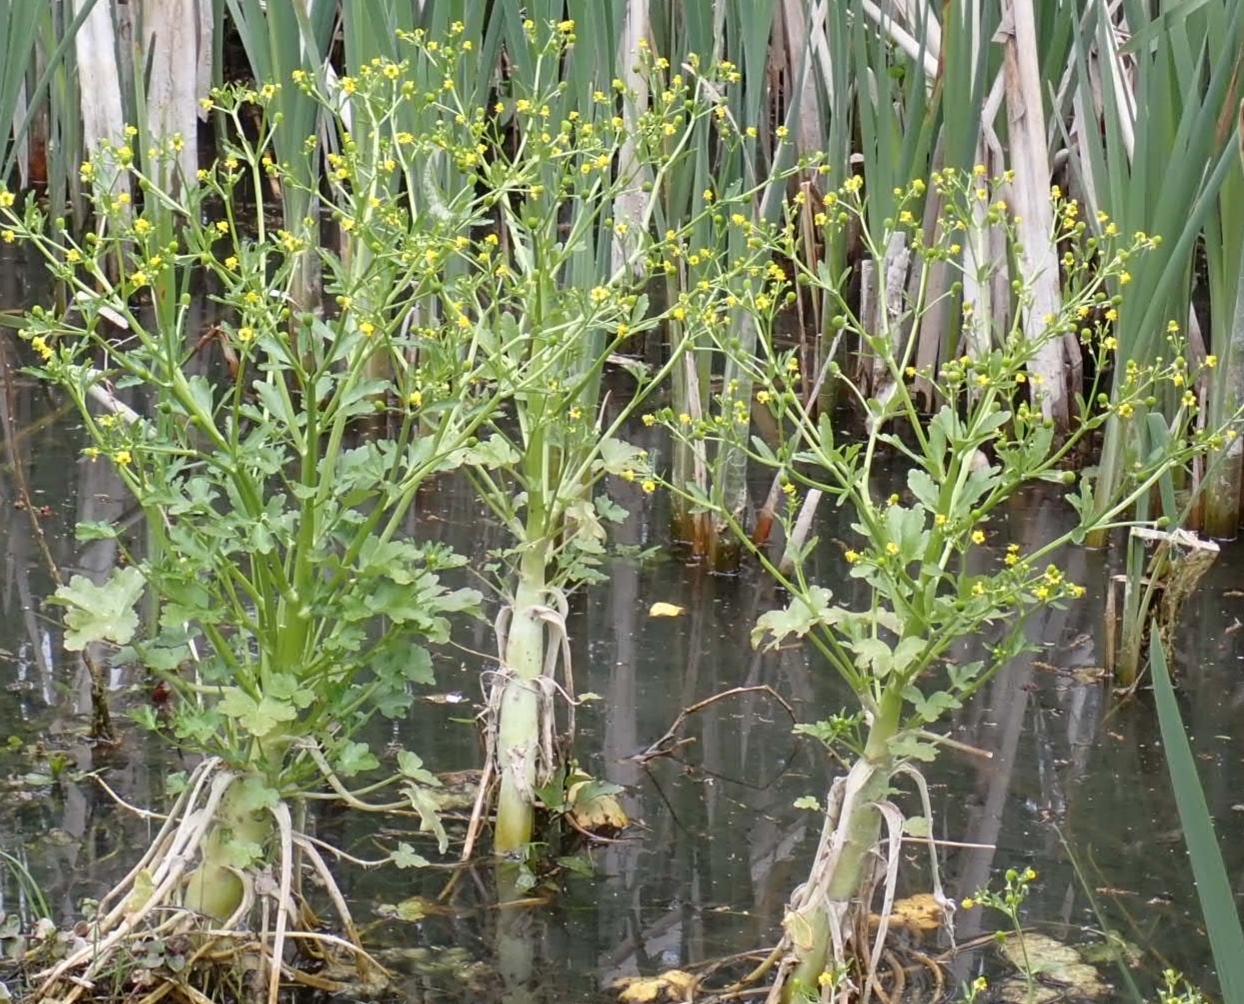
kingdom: Plantae
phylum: Tracheophyta
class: Magnoliopsida
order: Ranunculales
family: Ranunculaceae
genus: Ranunculus
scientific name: Ranunculus sceleratus
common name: Celery-leaved buttercup
